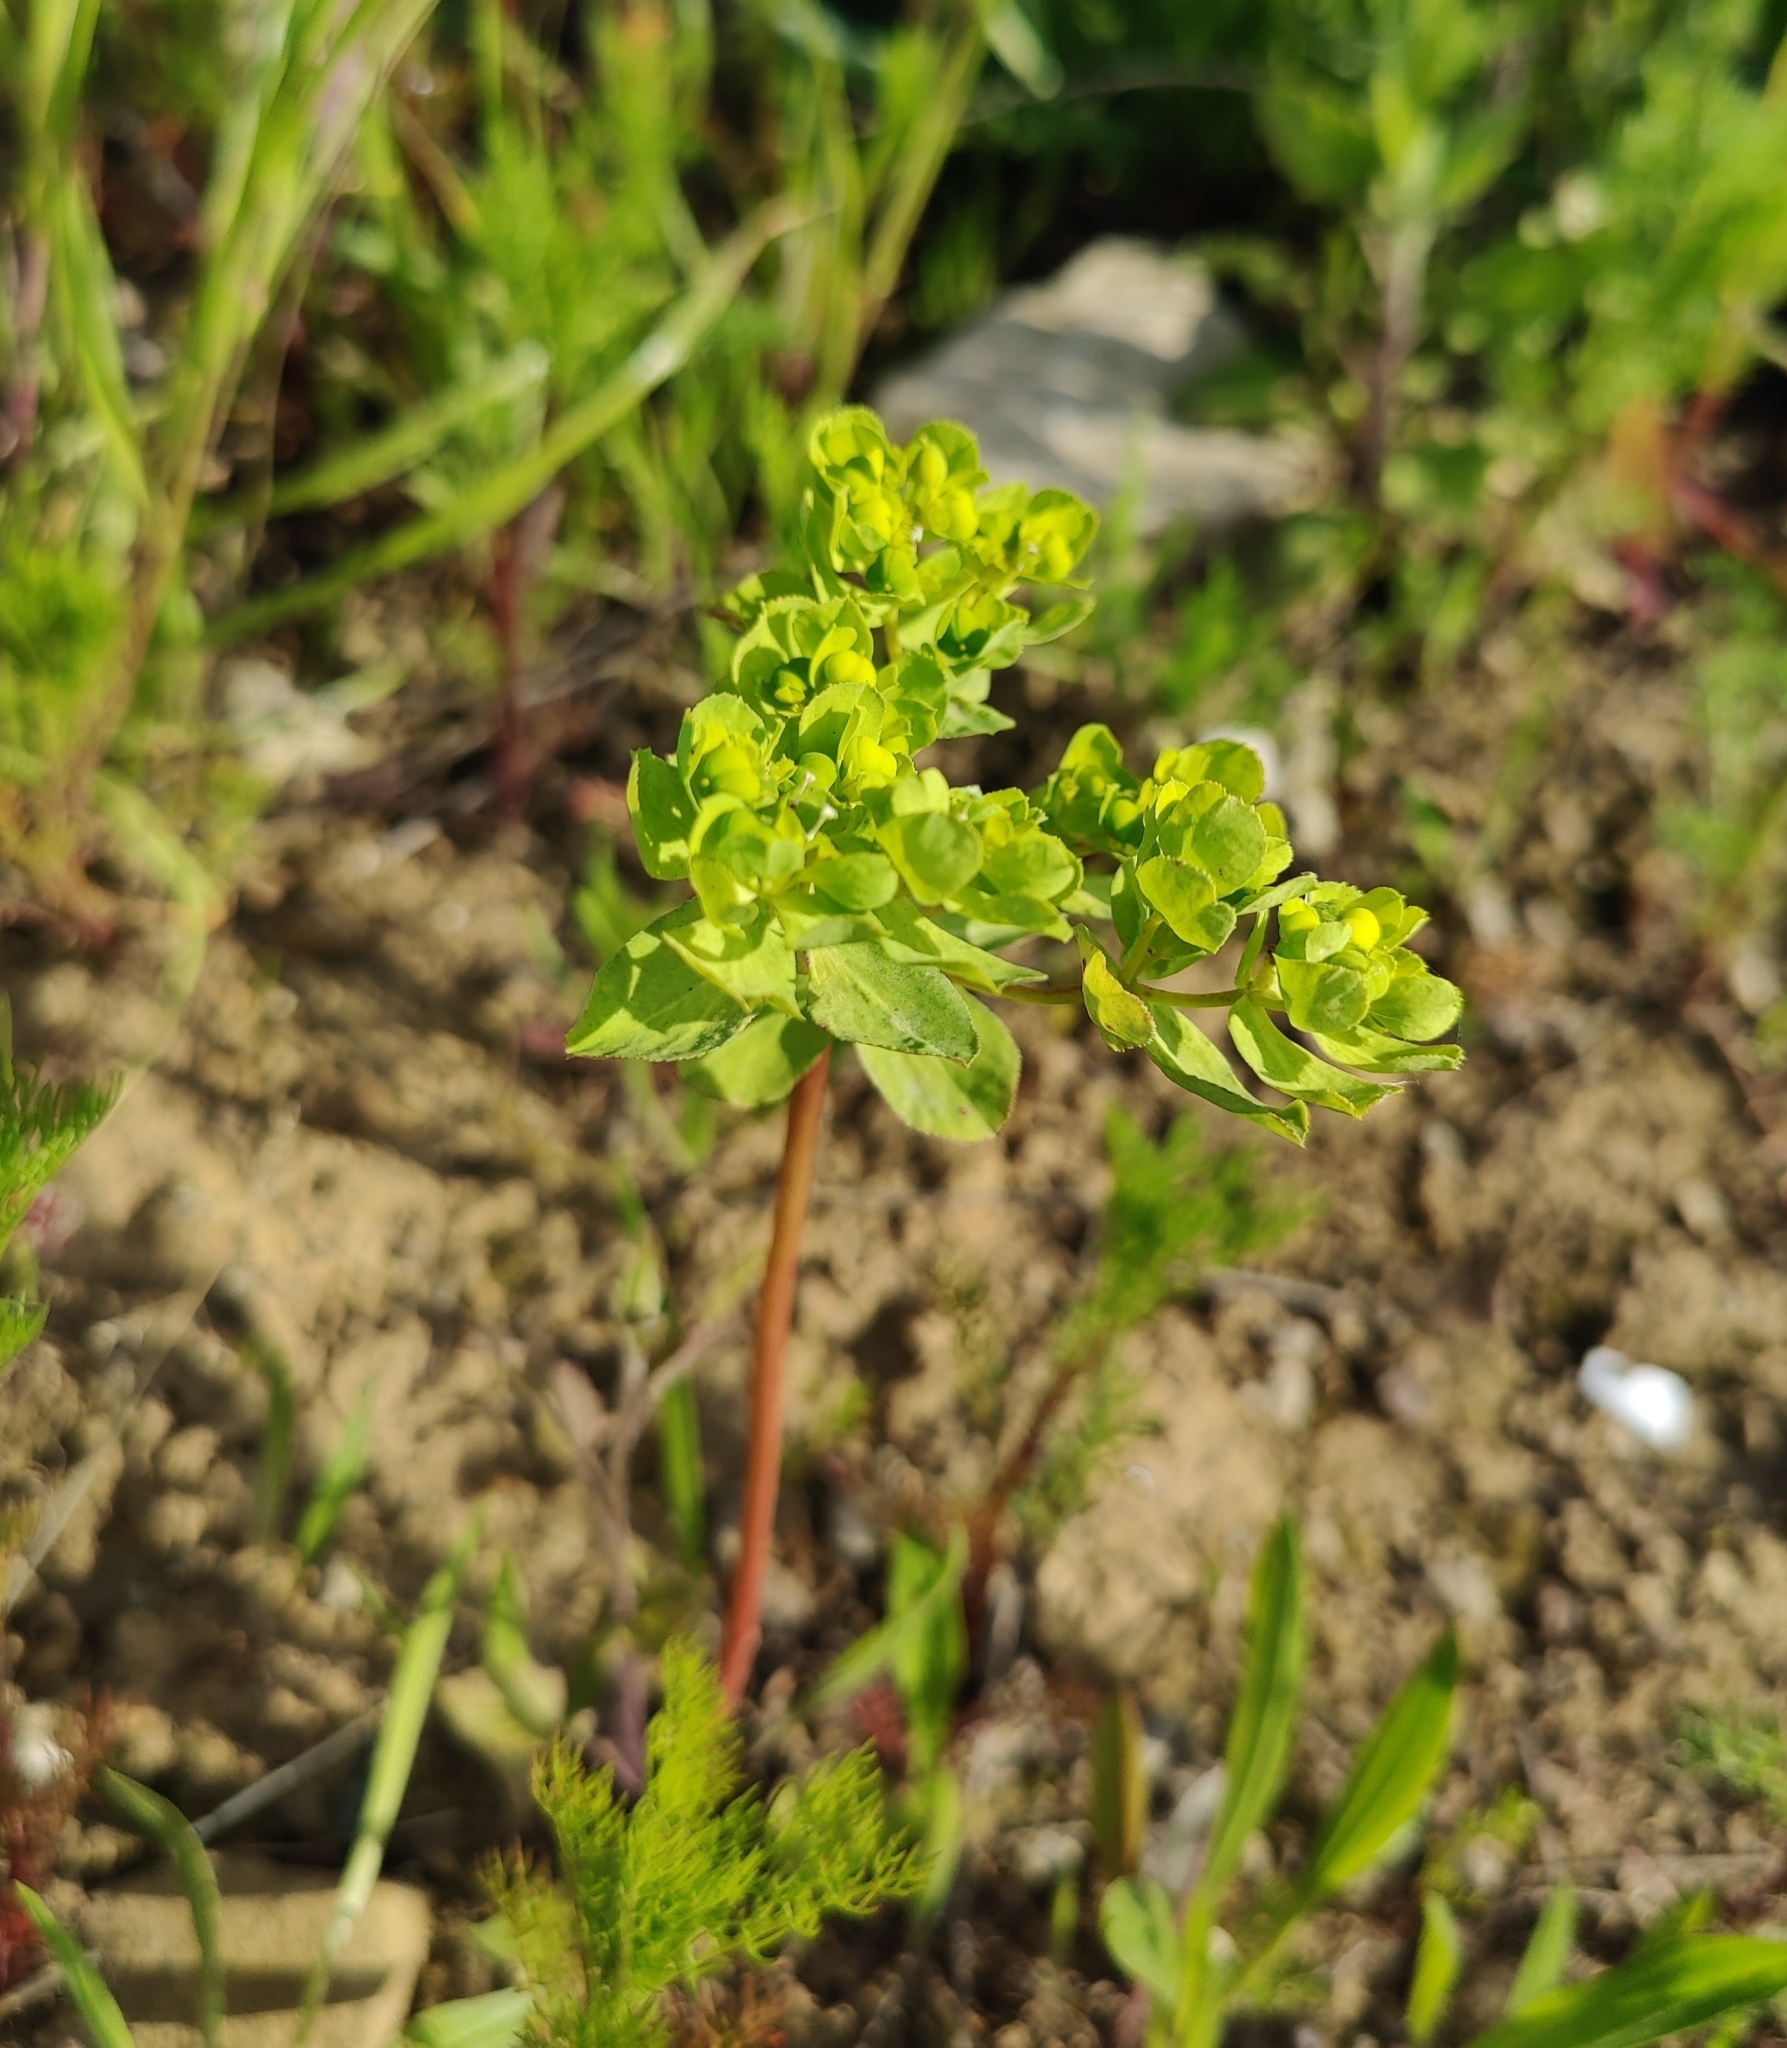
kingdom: Plantae
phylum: Tracheophyta
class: Magnoliopsida
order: Malpighiales
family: Euphorbiaceae
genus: Euphorbia
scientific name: Euphorbia helioscopia
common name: Sun spurge
